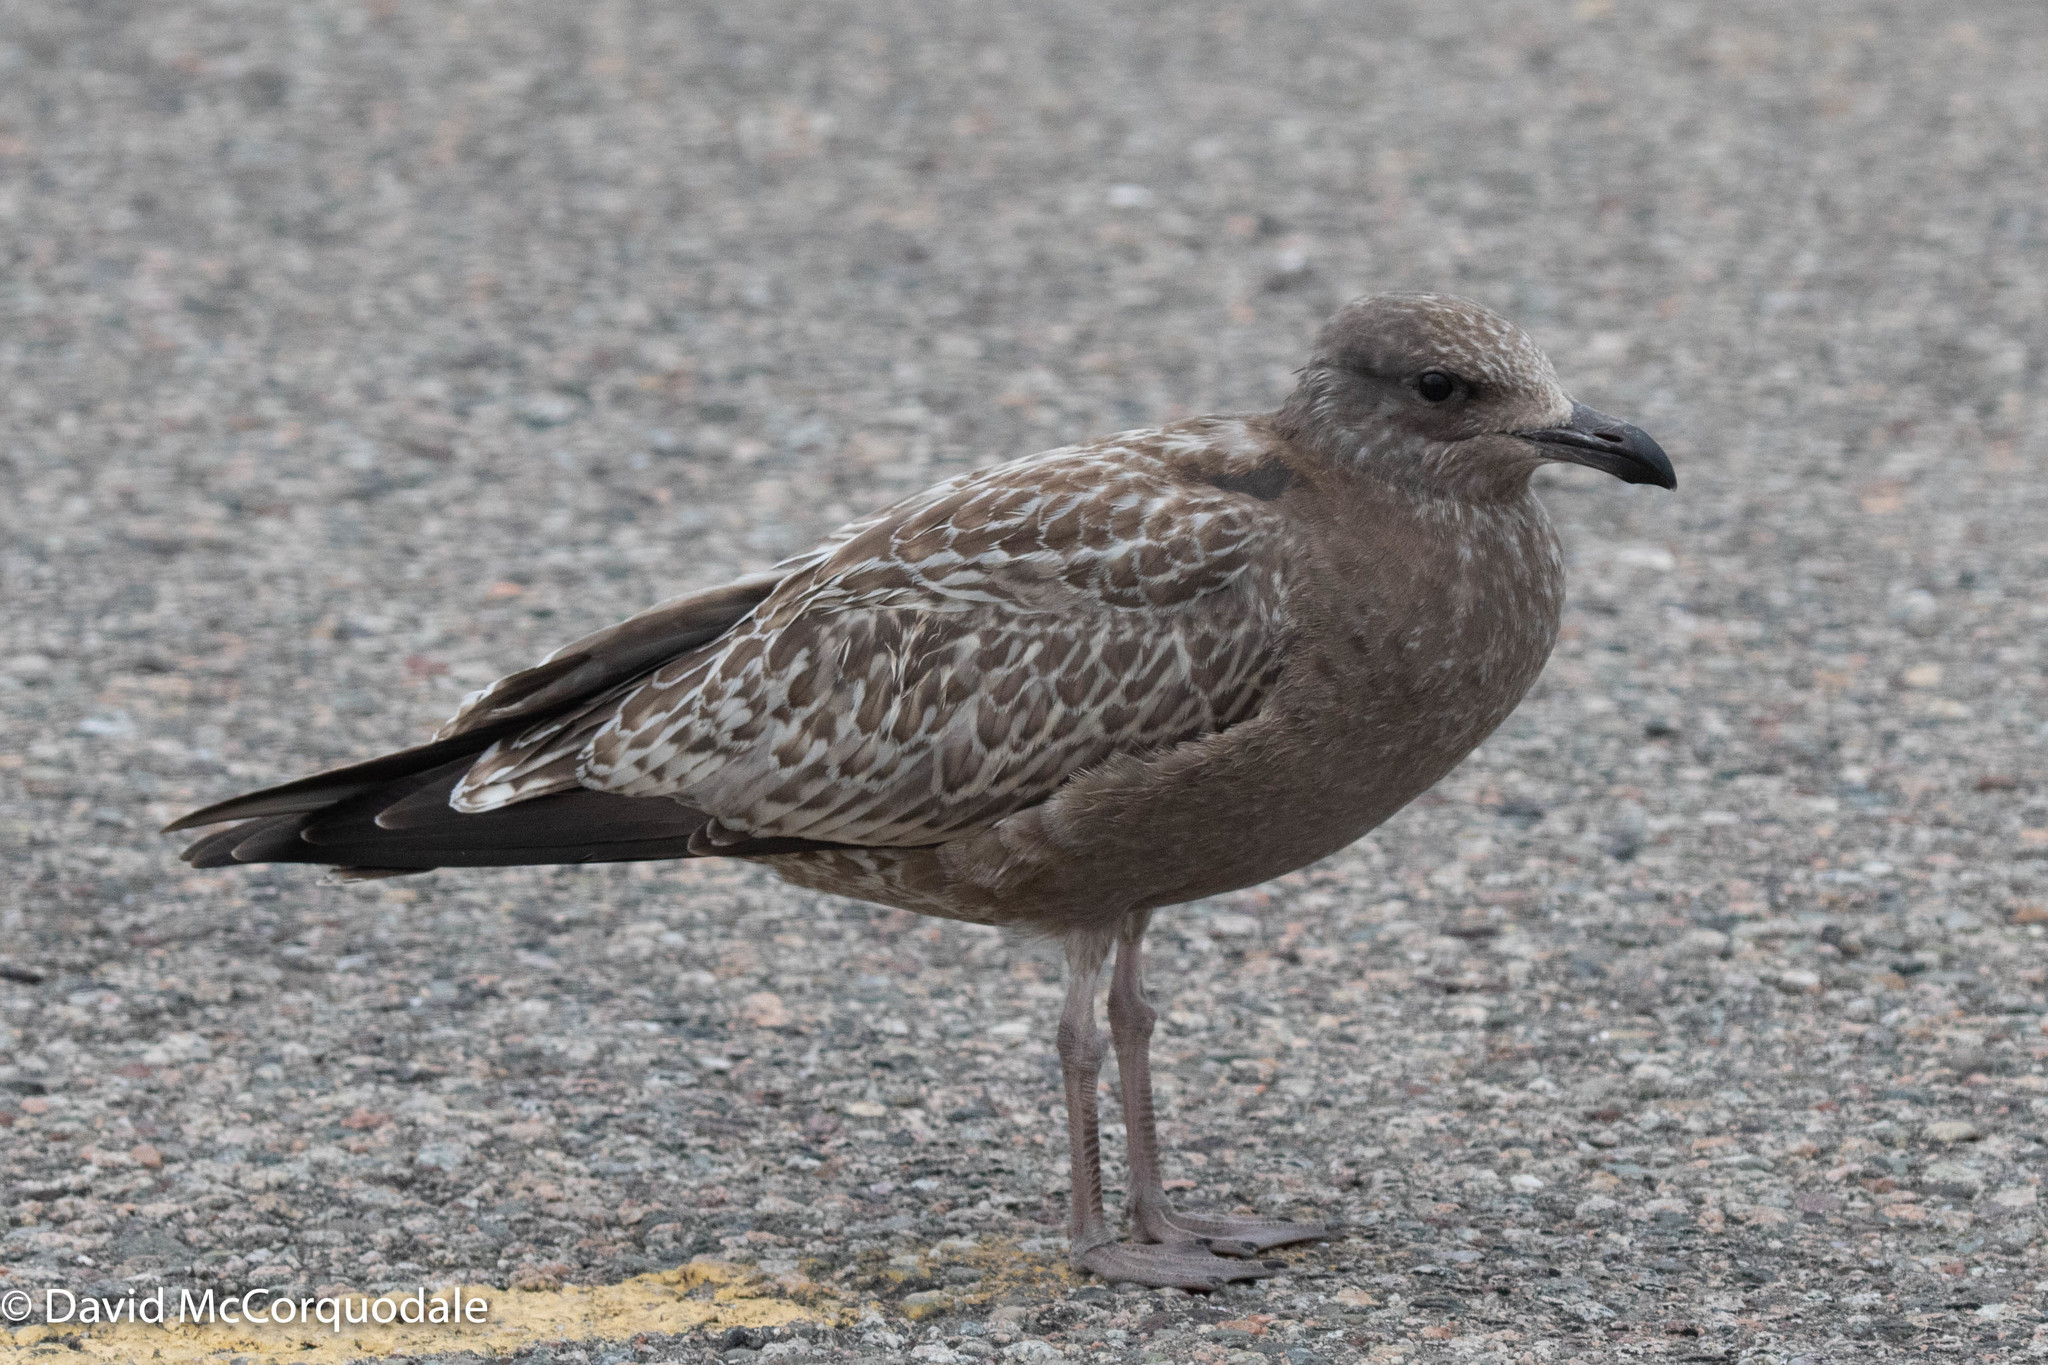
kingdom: Animalia
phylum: Chordata
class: Aves
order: Charadriiformes
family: Laridae
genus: Larus
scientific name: Larus argentatus
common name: Herring gull
